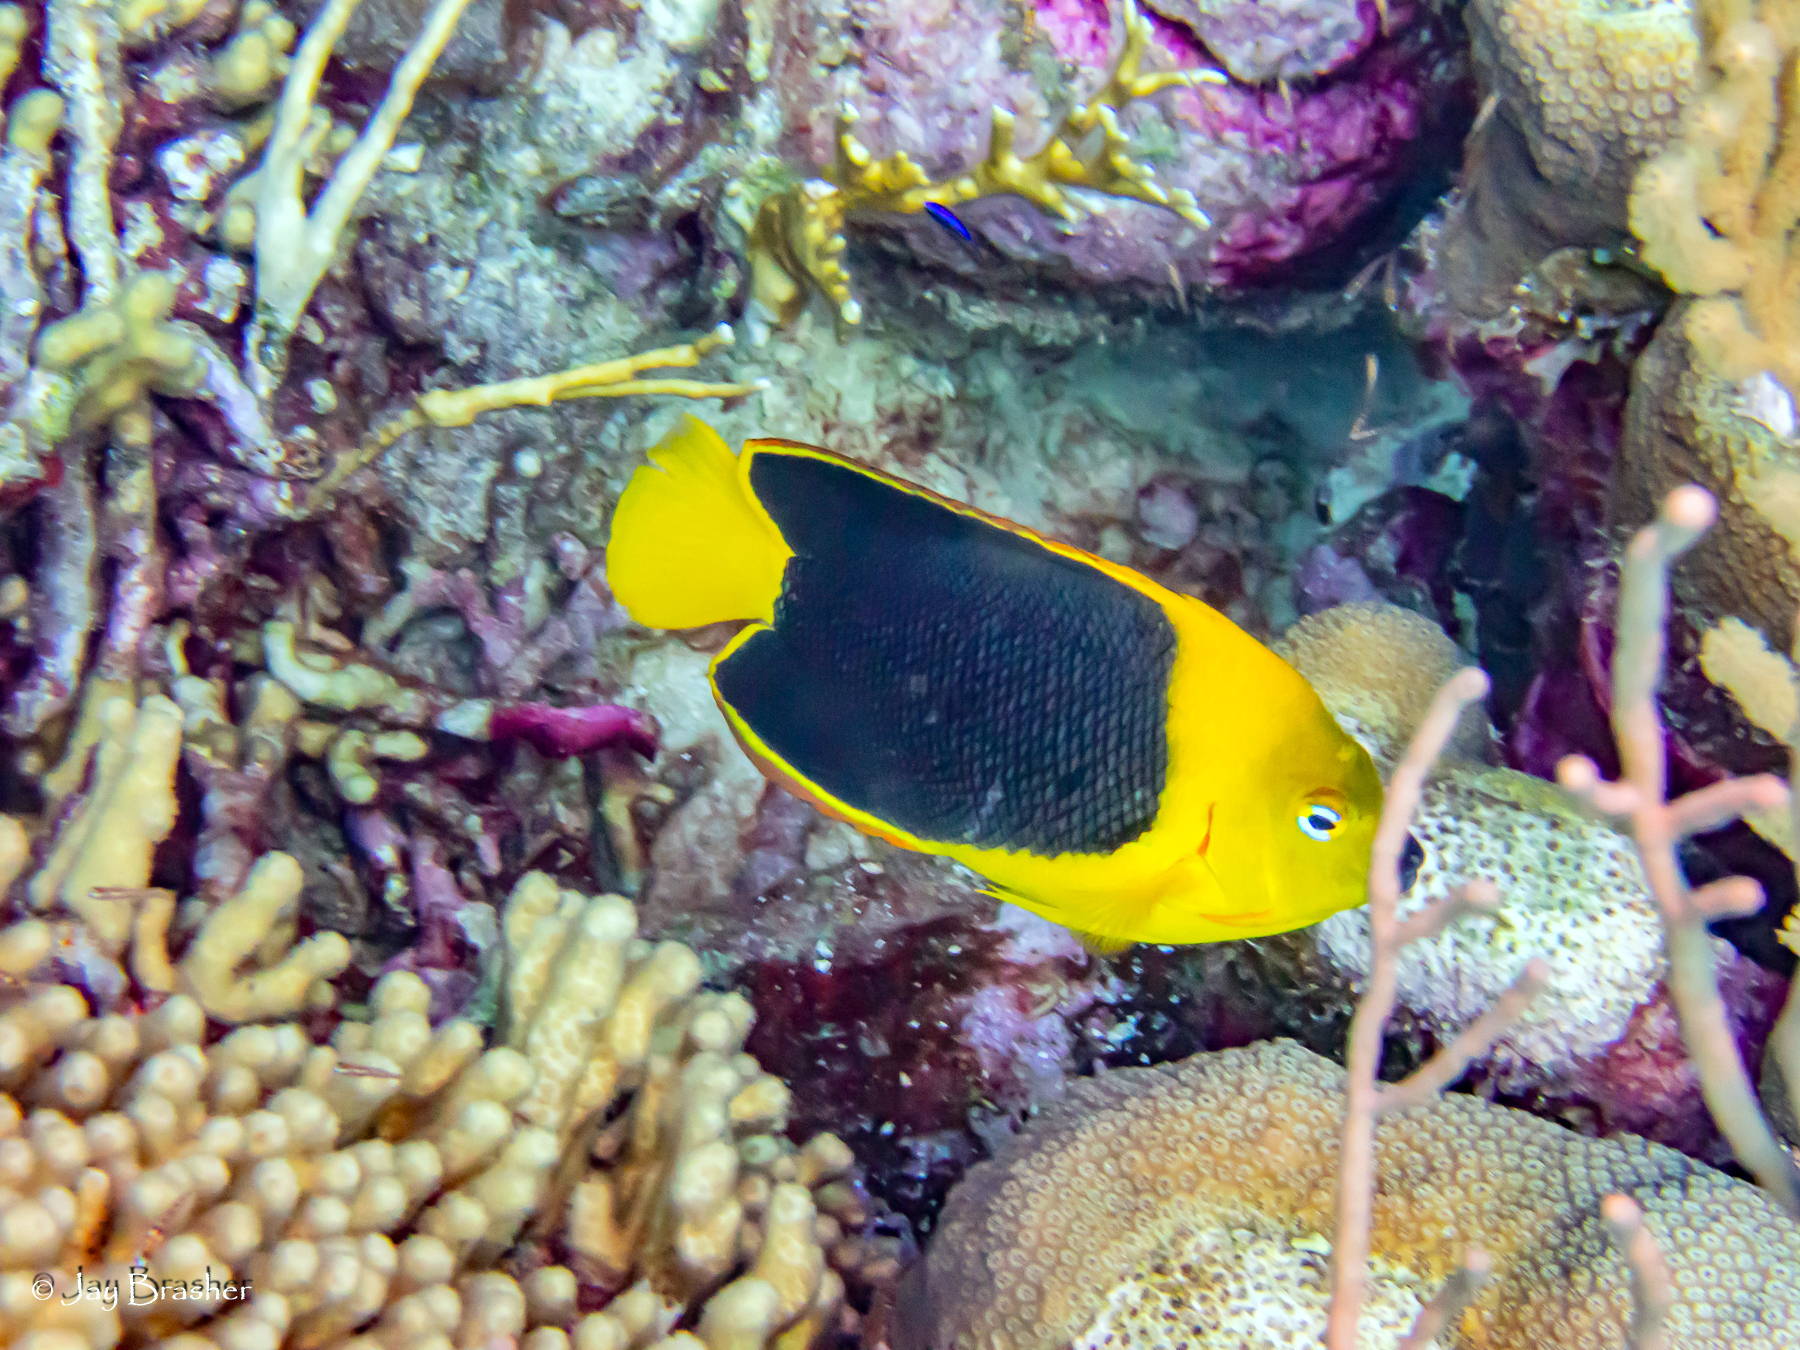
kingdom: Animalia
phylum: Chordata
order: Perciformes
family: Pomacanthidae
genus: Holacanthus
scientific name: Holacanthus tricolor
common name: Rock beauty
